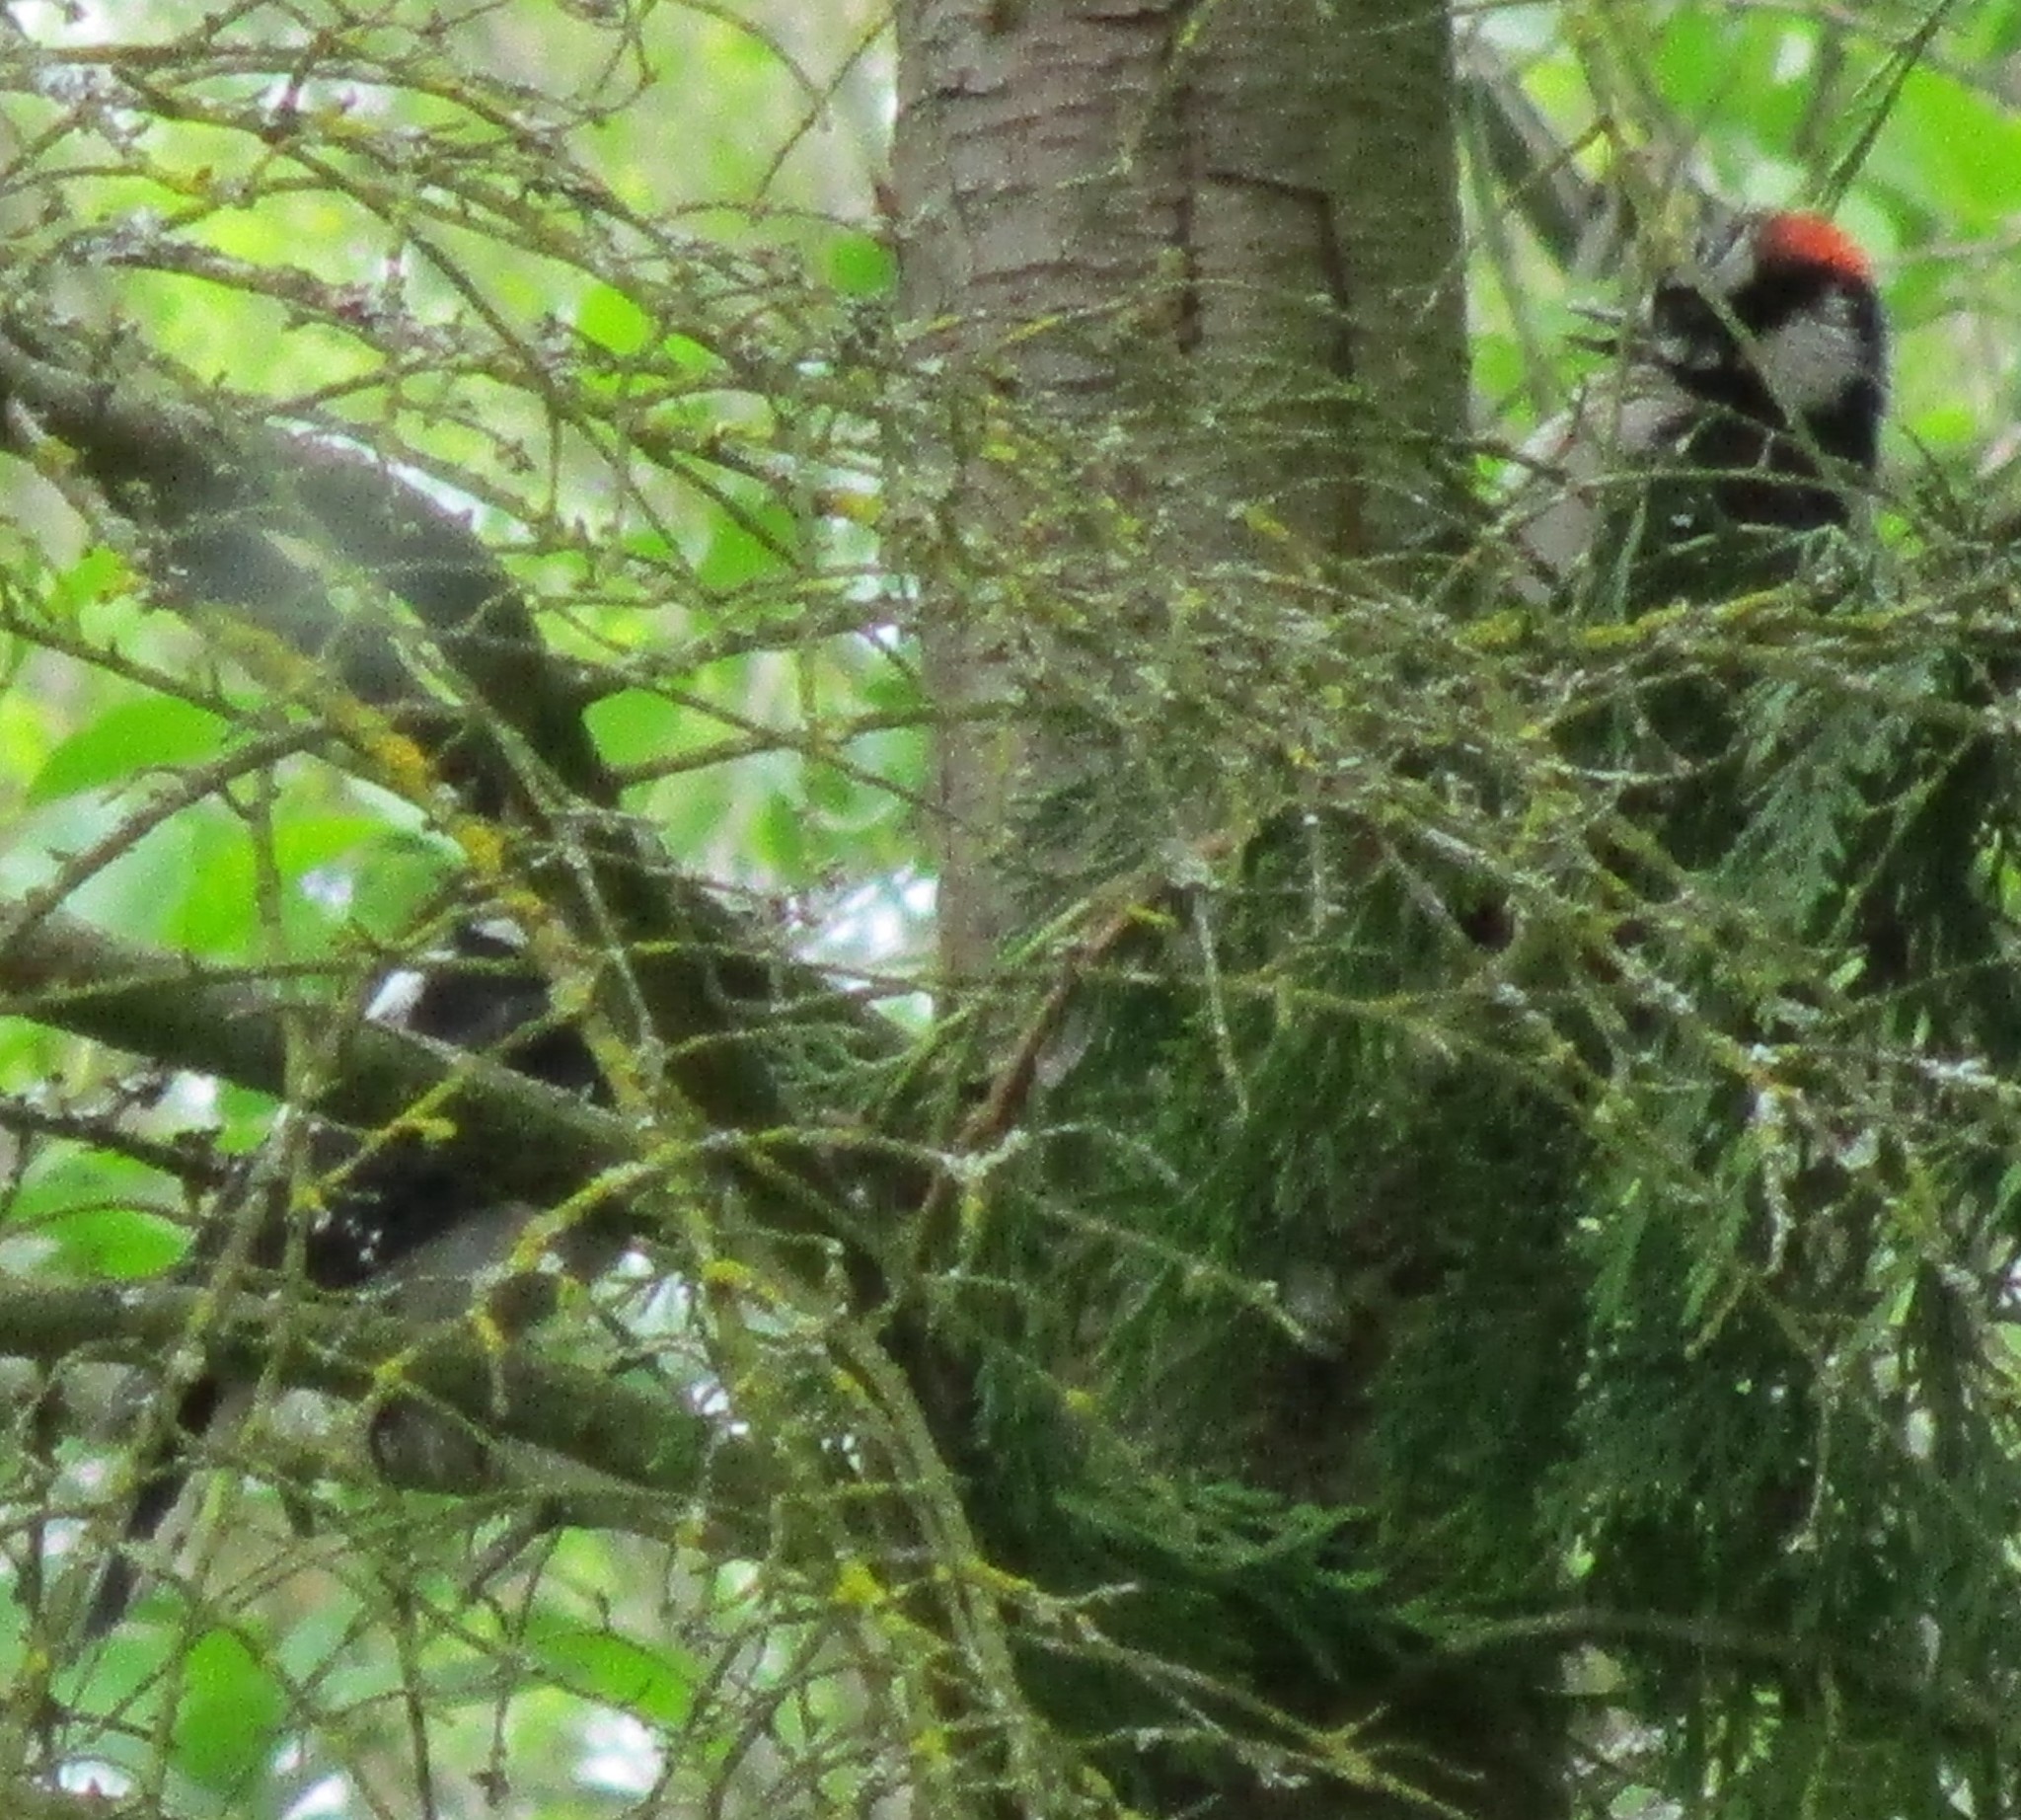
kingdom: Animalia
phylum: Chordata
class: Aves
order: Piciformes
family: Picidae
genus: Dryobates
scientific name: Dryobates pubescens
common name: Downy woodpecker
